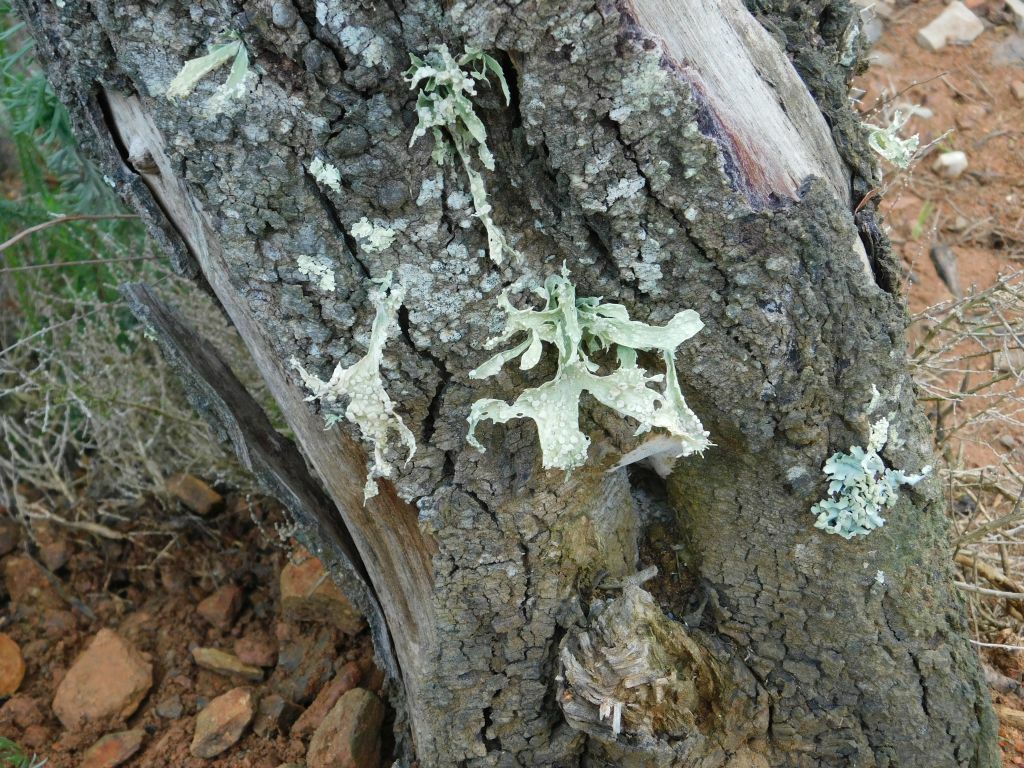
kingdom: Fungi
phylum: Ascomycota
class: Lecanoromycetes
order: Lecanorales
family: Ramalinaceae
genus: Ramalina
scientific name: Ramalina celastri
